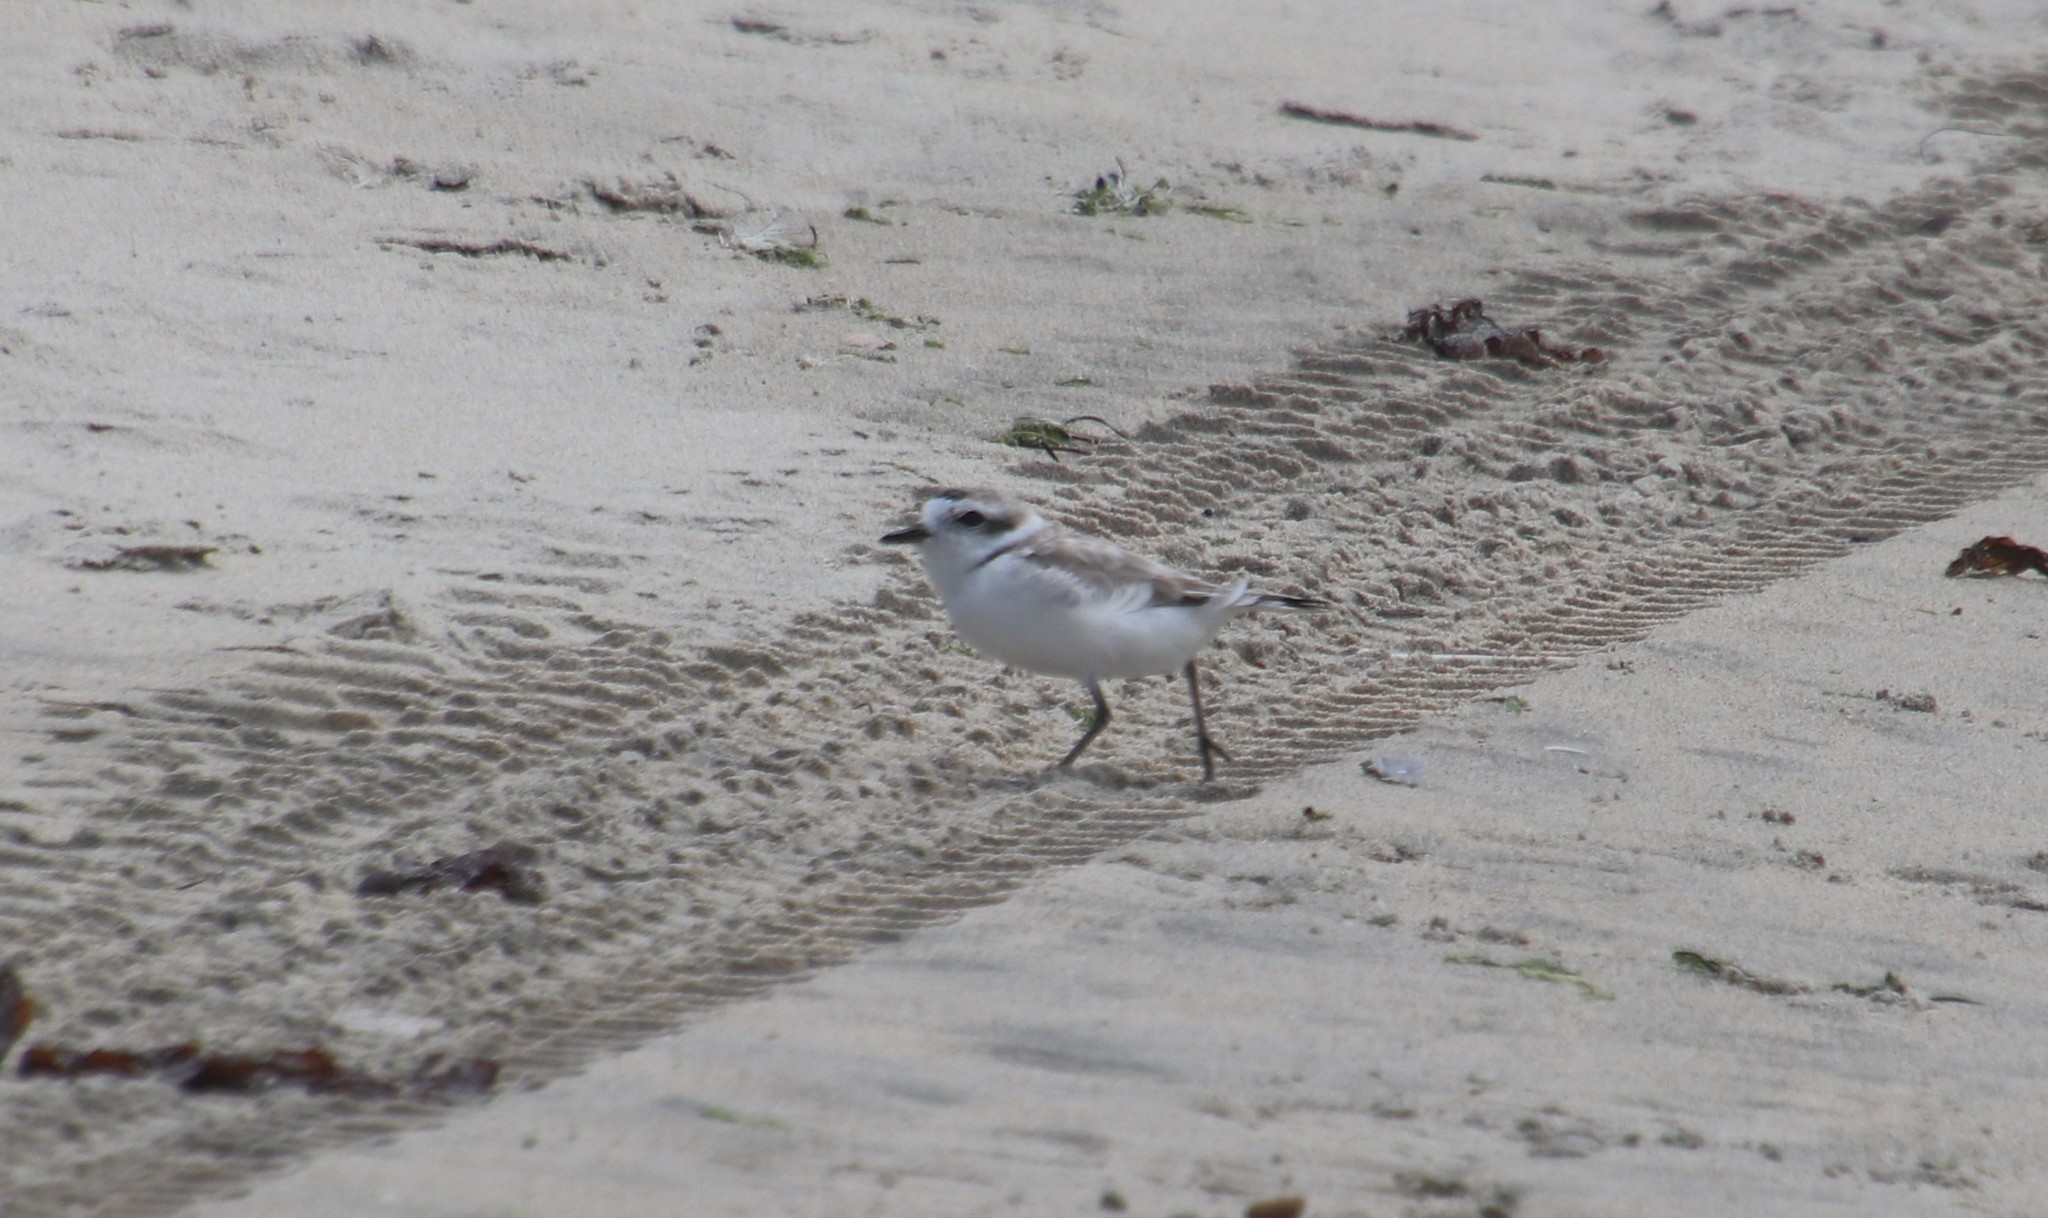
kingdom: Animalia
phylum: Chordata
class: Aves
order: Charadriiformes
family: Charadriidae
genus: Anarhynchus
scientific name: Anarhynchus
